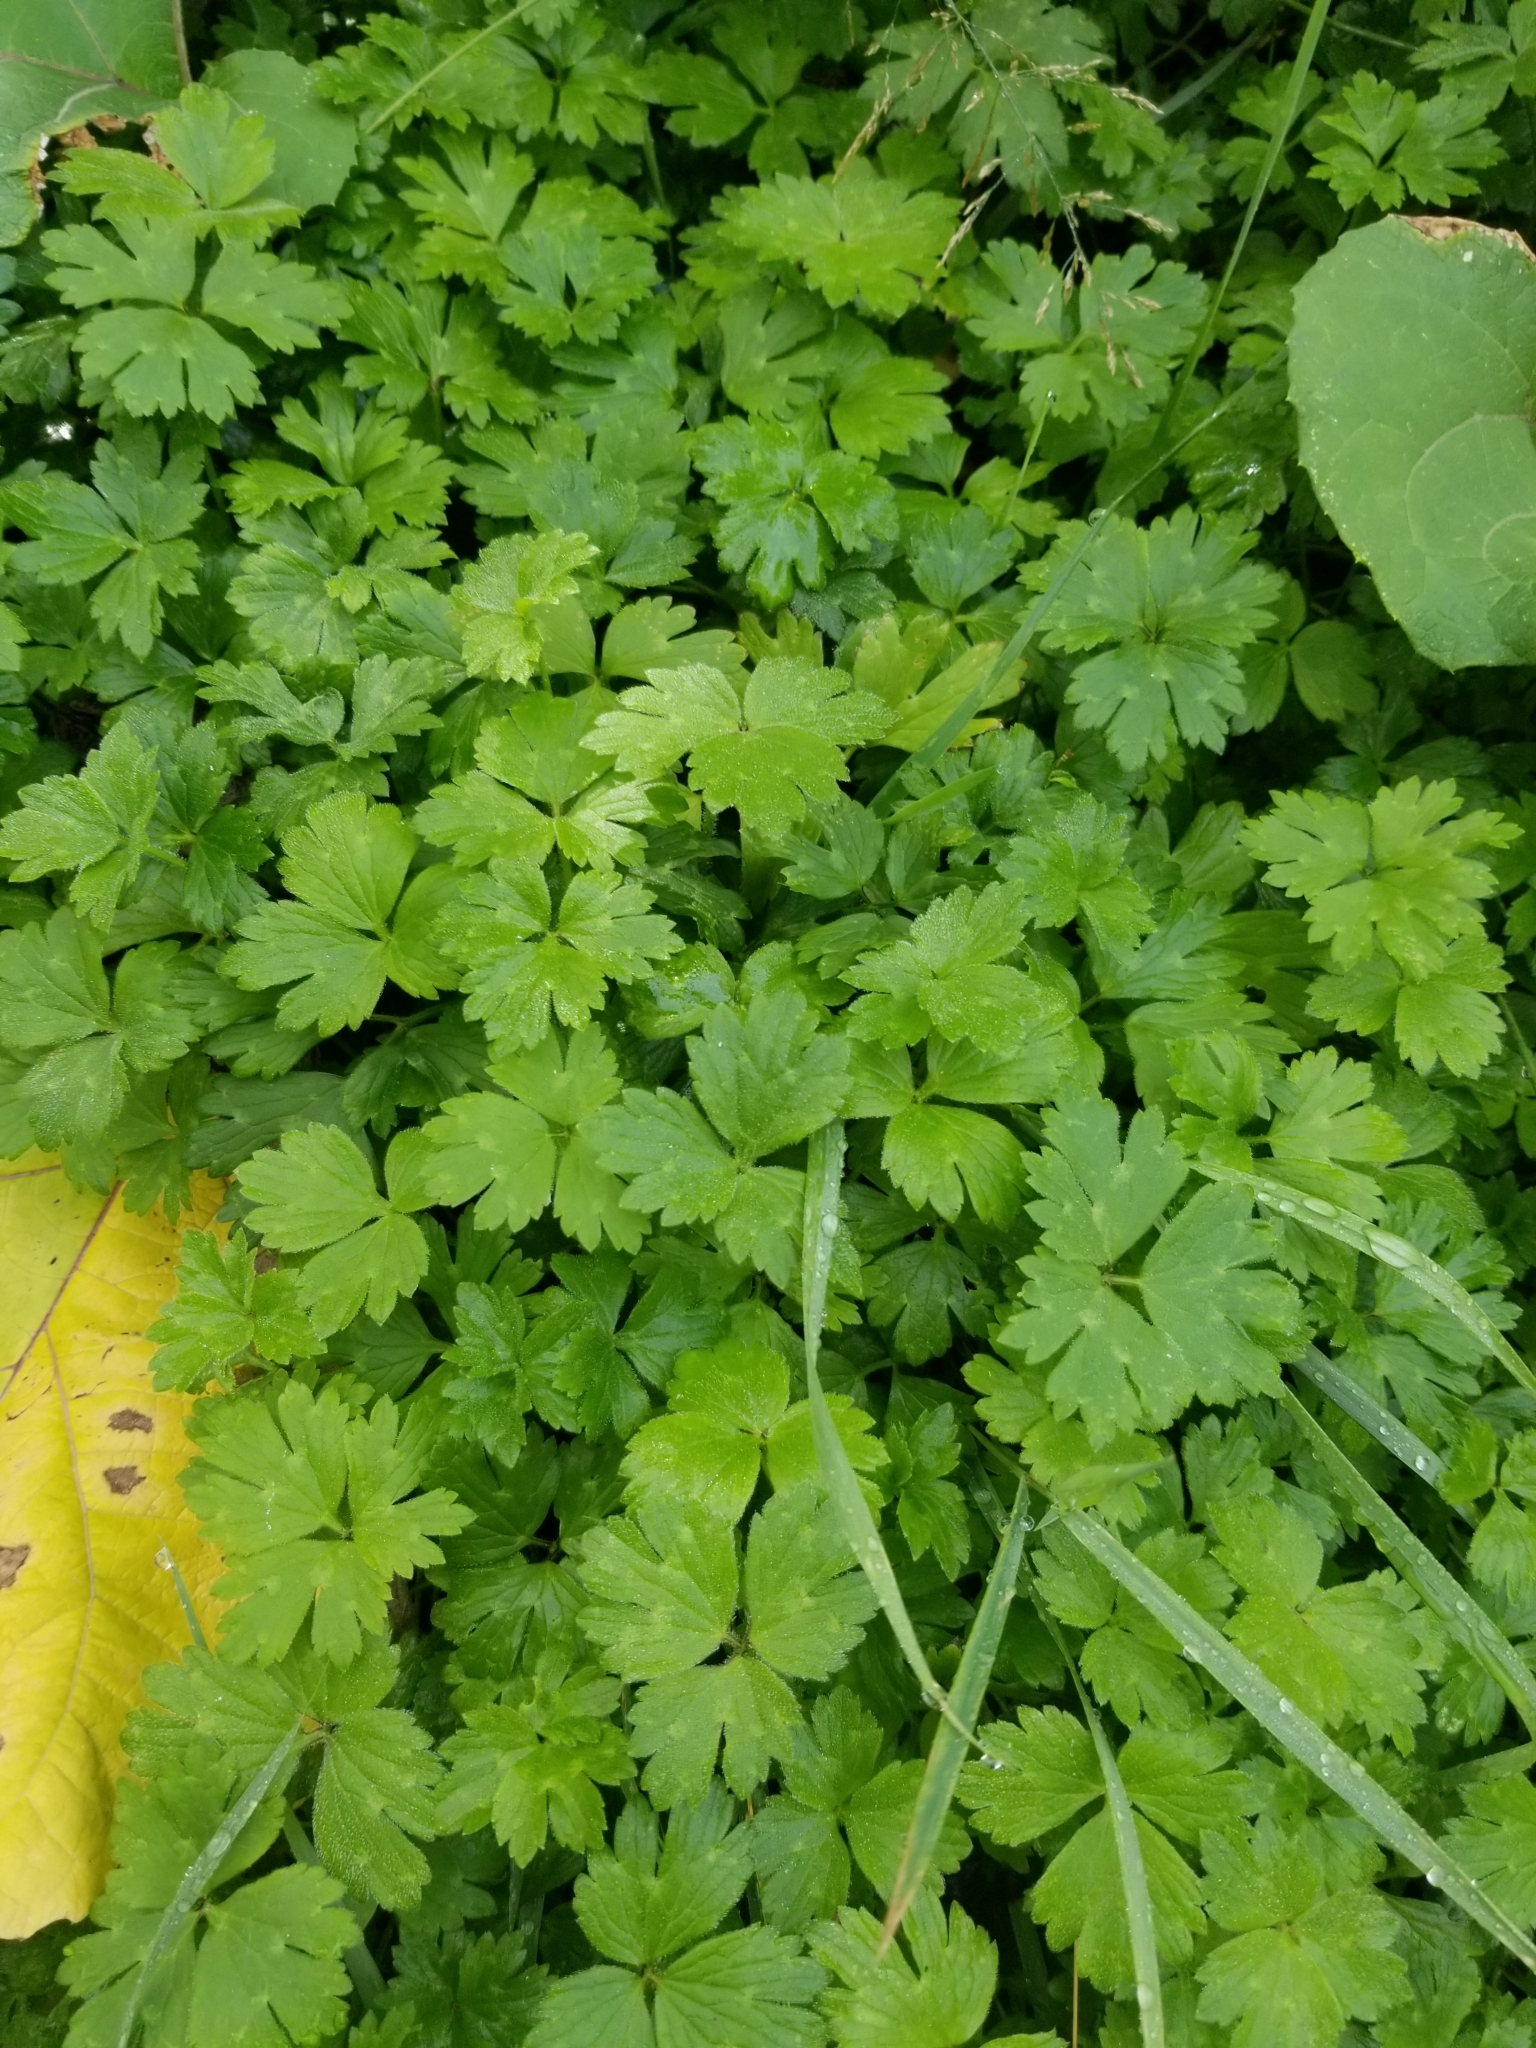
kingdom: Plantae
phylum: Tracheophyta
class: Magnoliopsida
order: Ranunculales
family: Ranunculaceae
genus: Ranunculus
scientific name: Ranunculus repens
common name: Creeping buttercup
